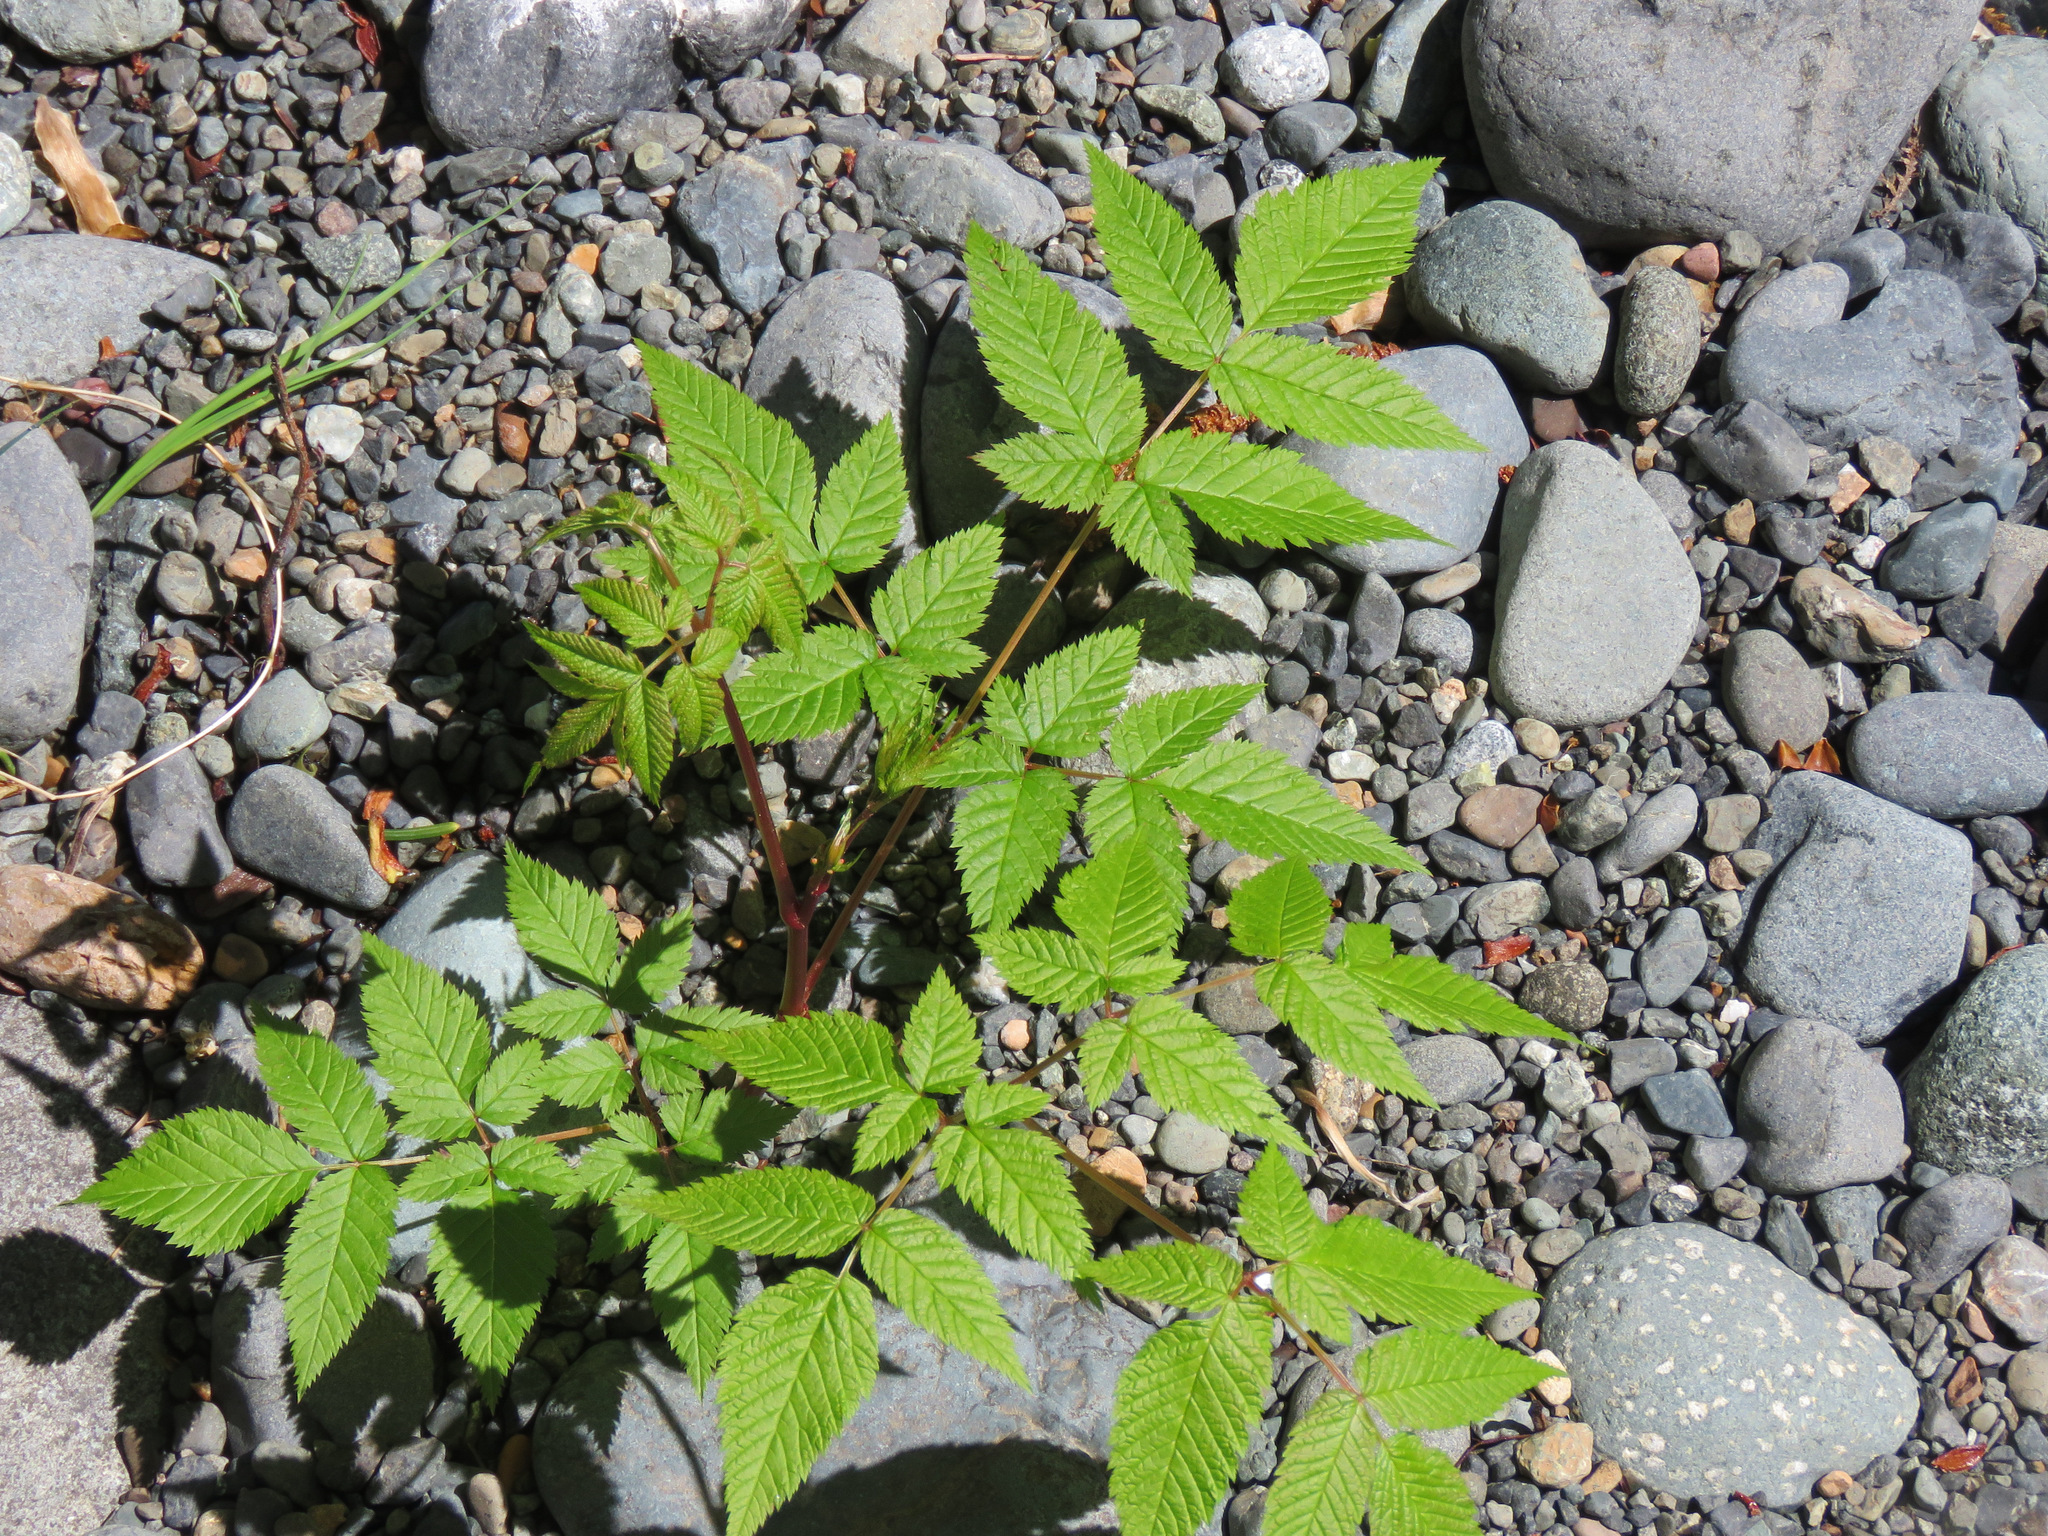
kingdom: Plantae
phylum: Tracheophyta
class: Magnoliopsida
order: Rosales
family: Rosaceae
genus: Aruncus
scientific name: Aruncus dioicus
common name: Buck's-beard
